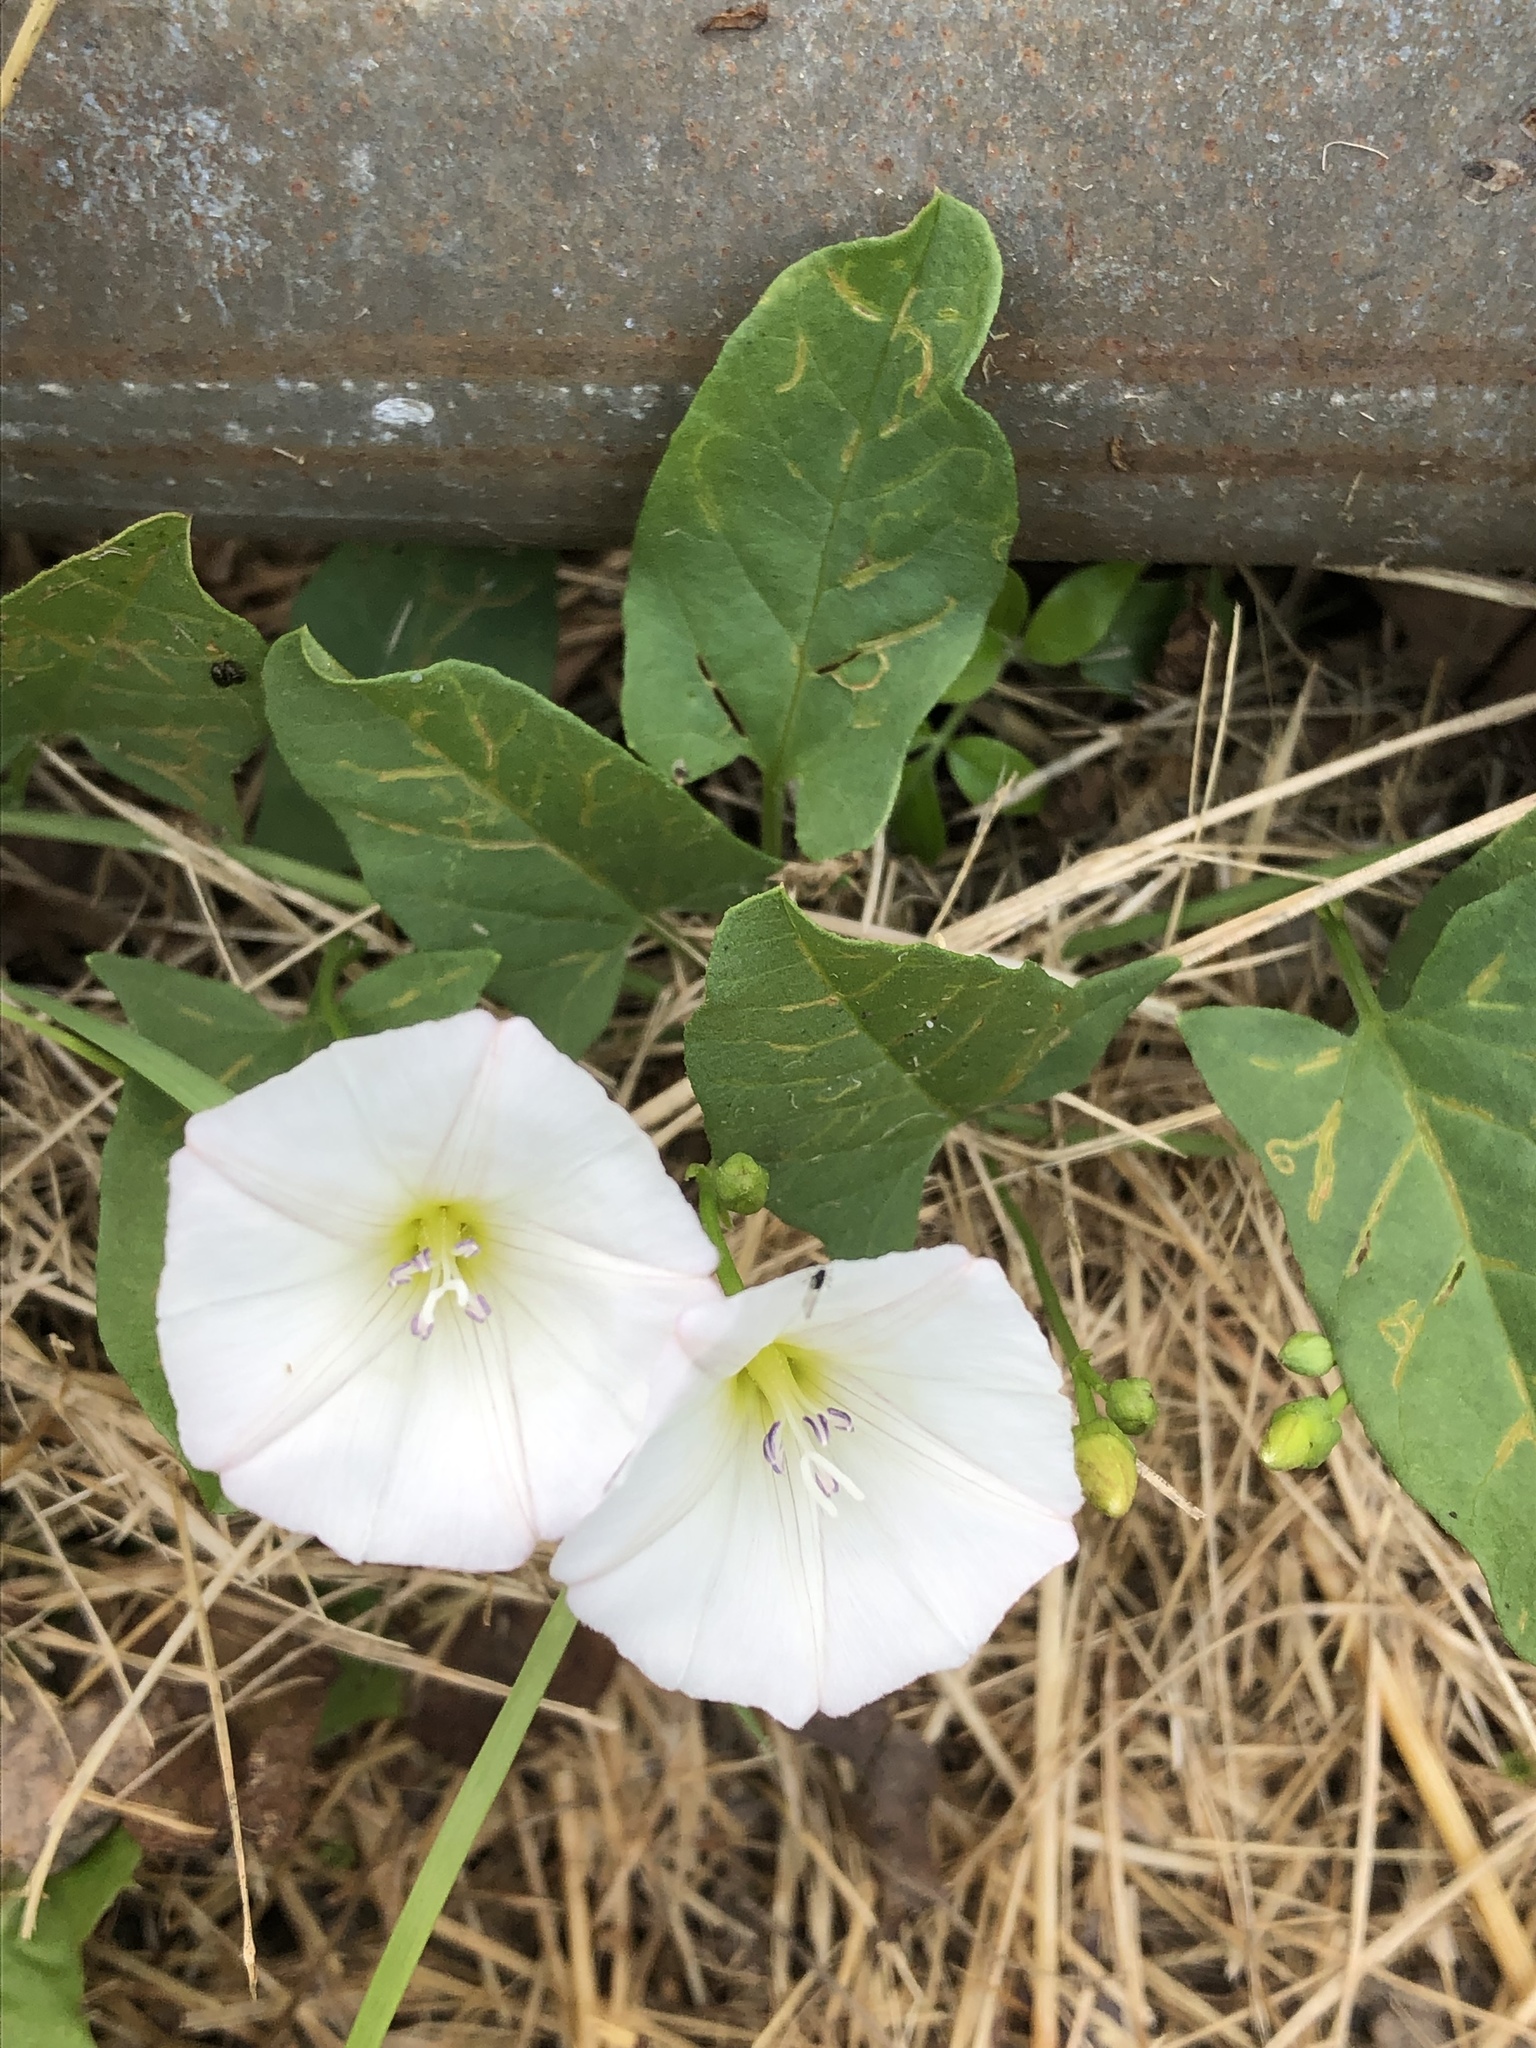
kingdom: Plantae
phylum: Tracheophyta
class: Magnoliopsida
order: Solanales
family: Convolvulaceae
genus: Convolvulus
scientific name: Convolvulus arvensis
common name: Field bindweed
